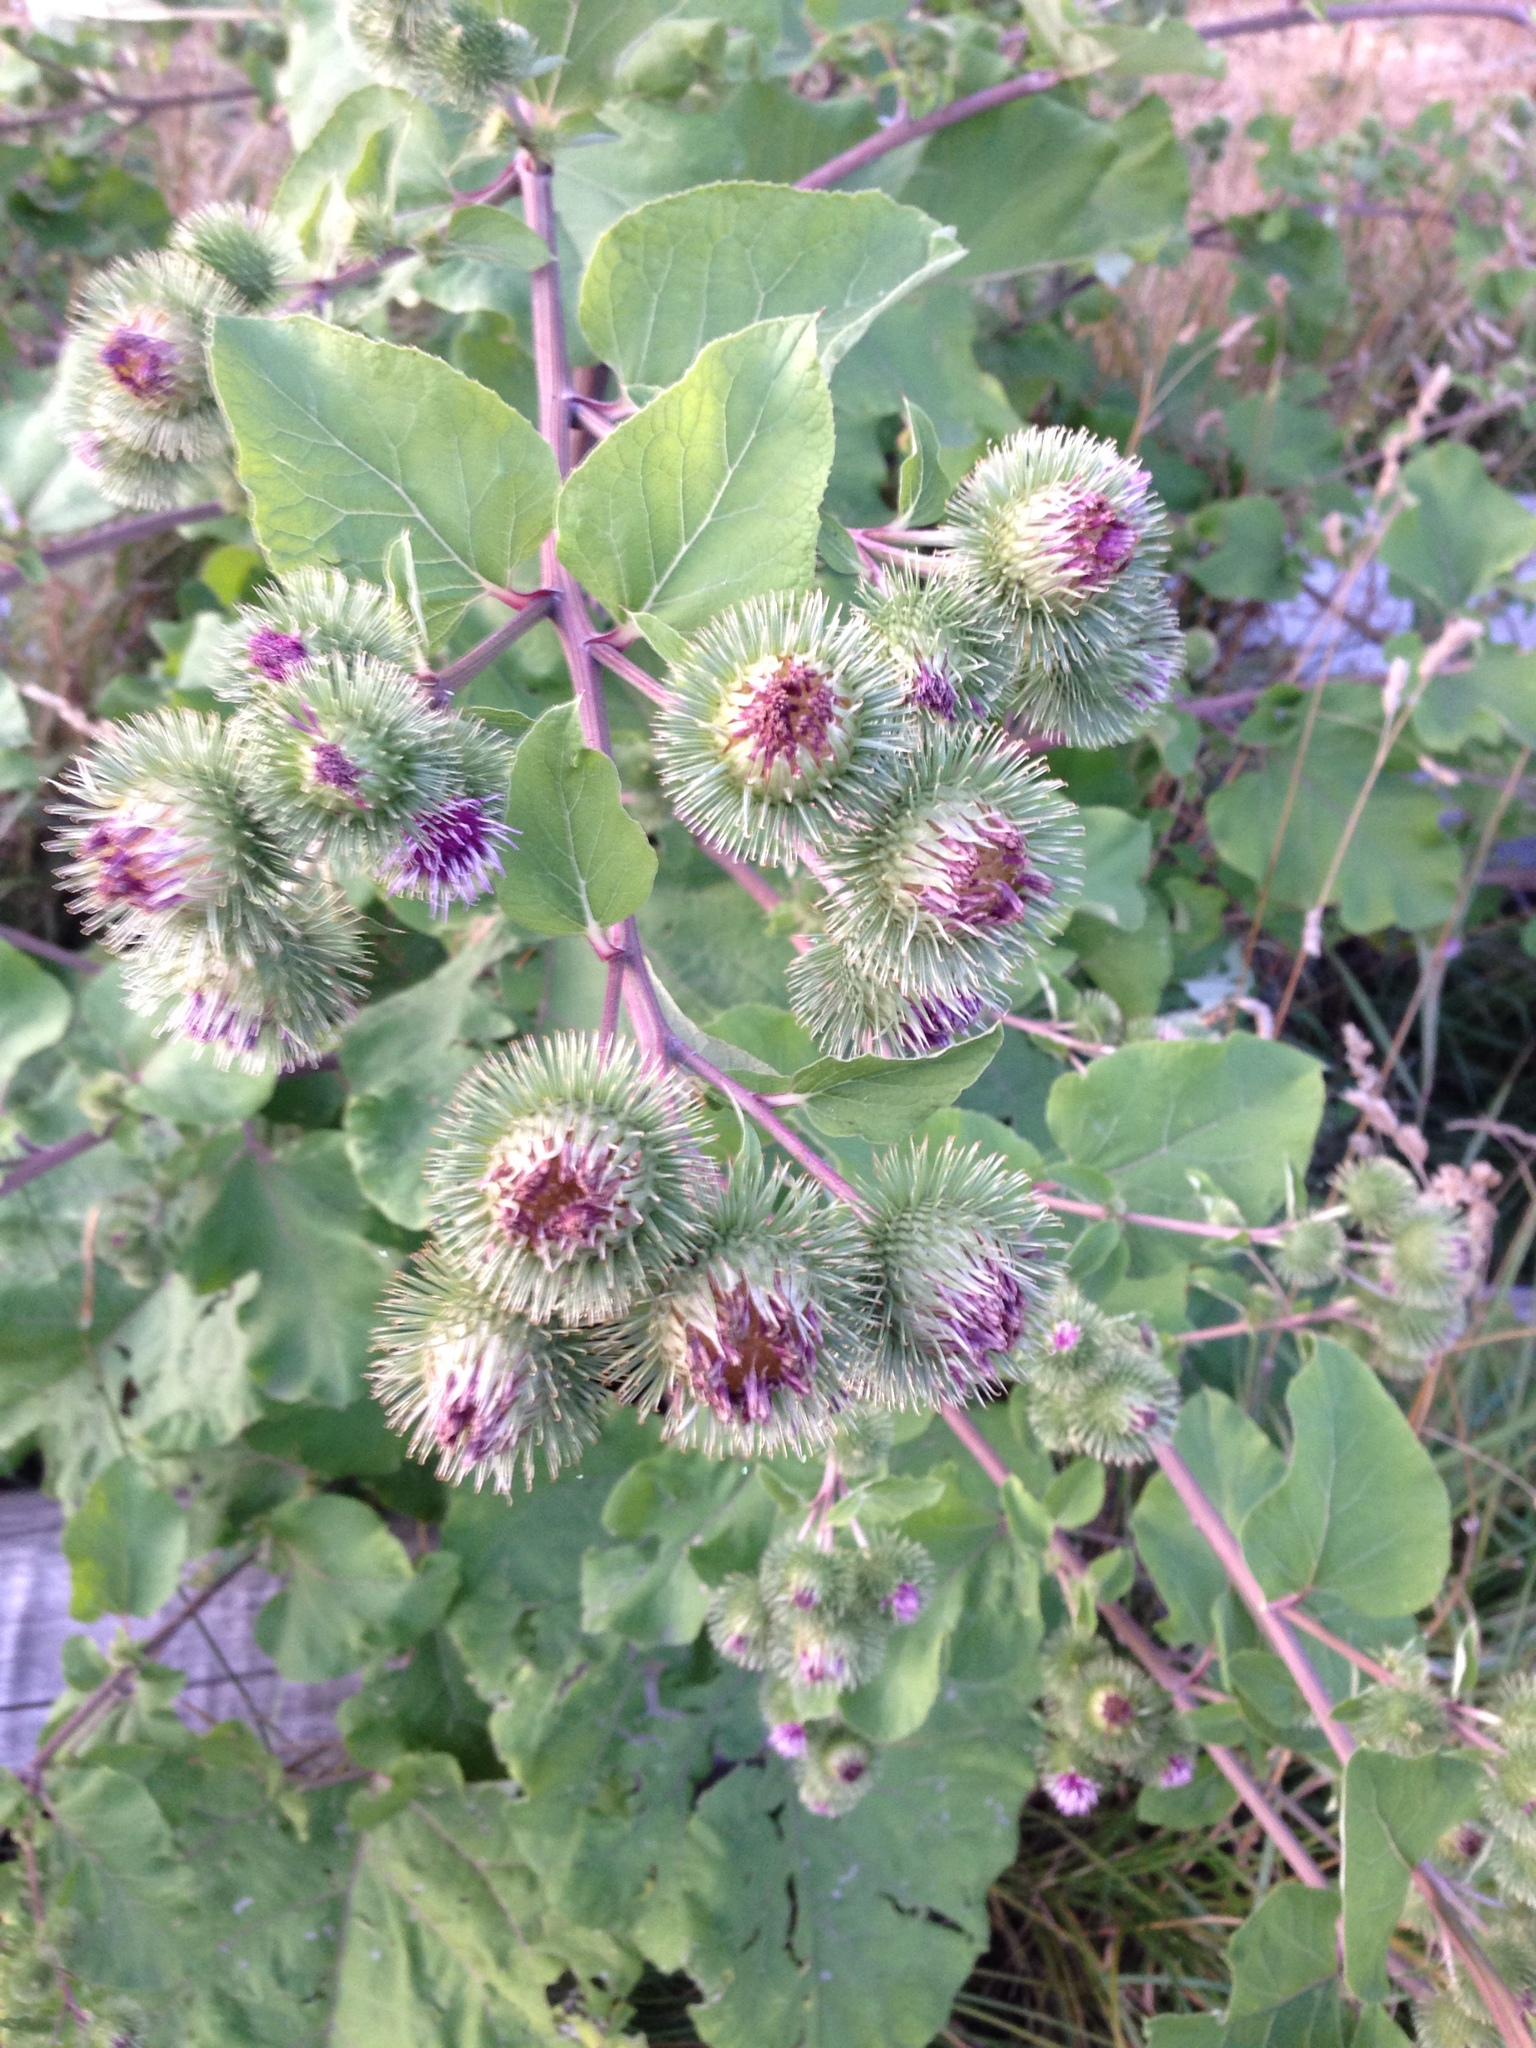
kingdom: Plantae
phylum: Tracheophyta
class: Magnoliopsida
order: Asterales
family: Asteraceae
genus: Arctium
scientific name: Arctium lappa
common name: Greater burdock
